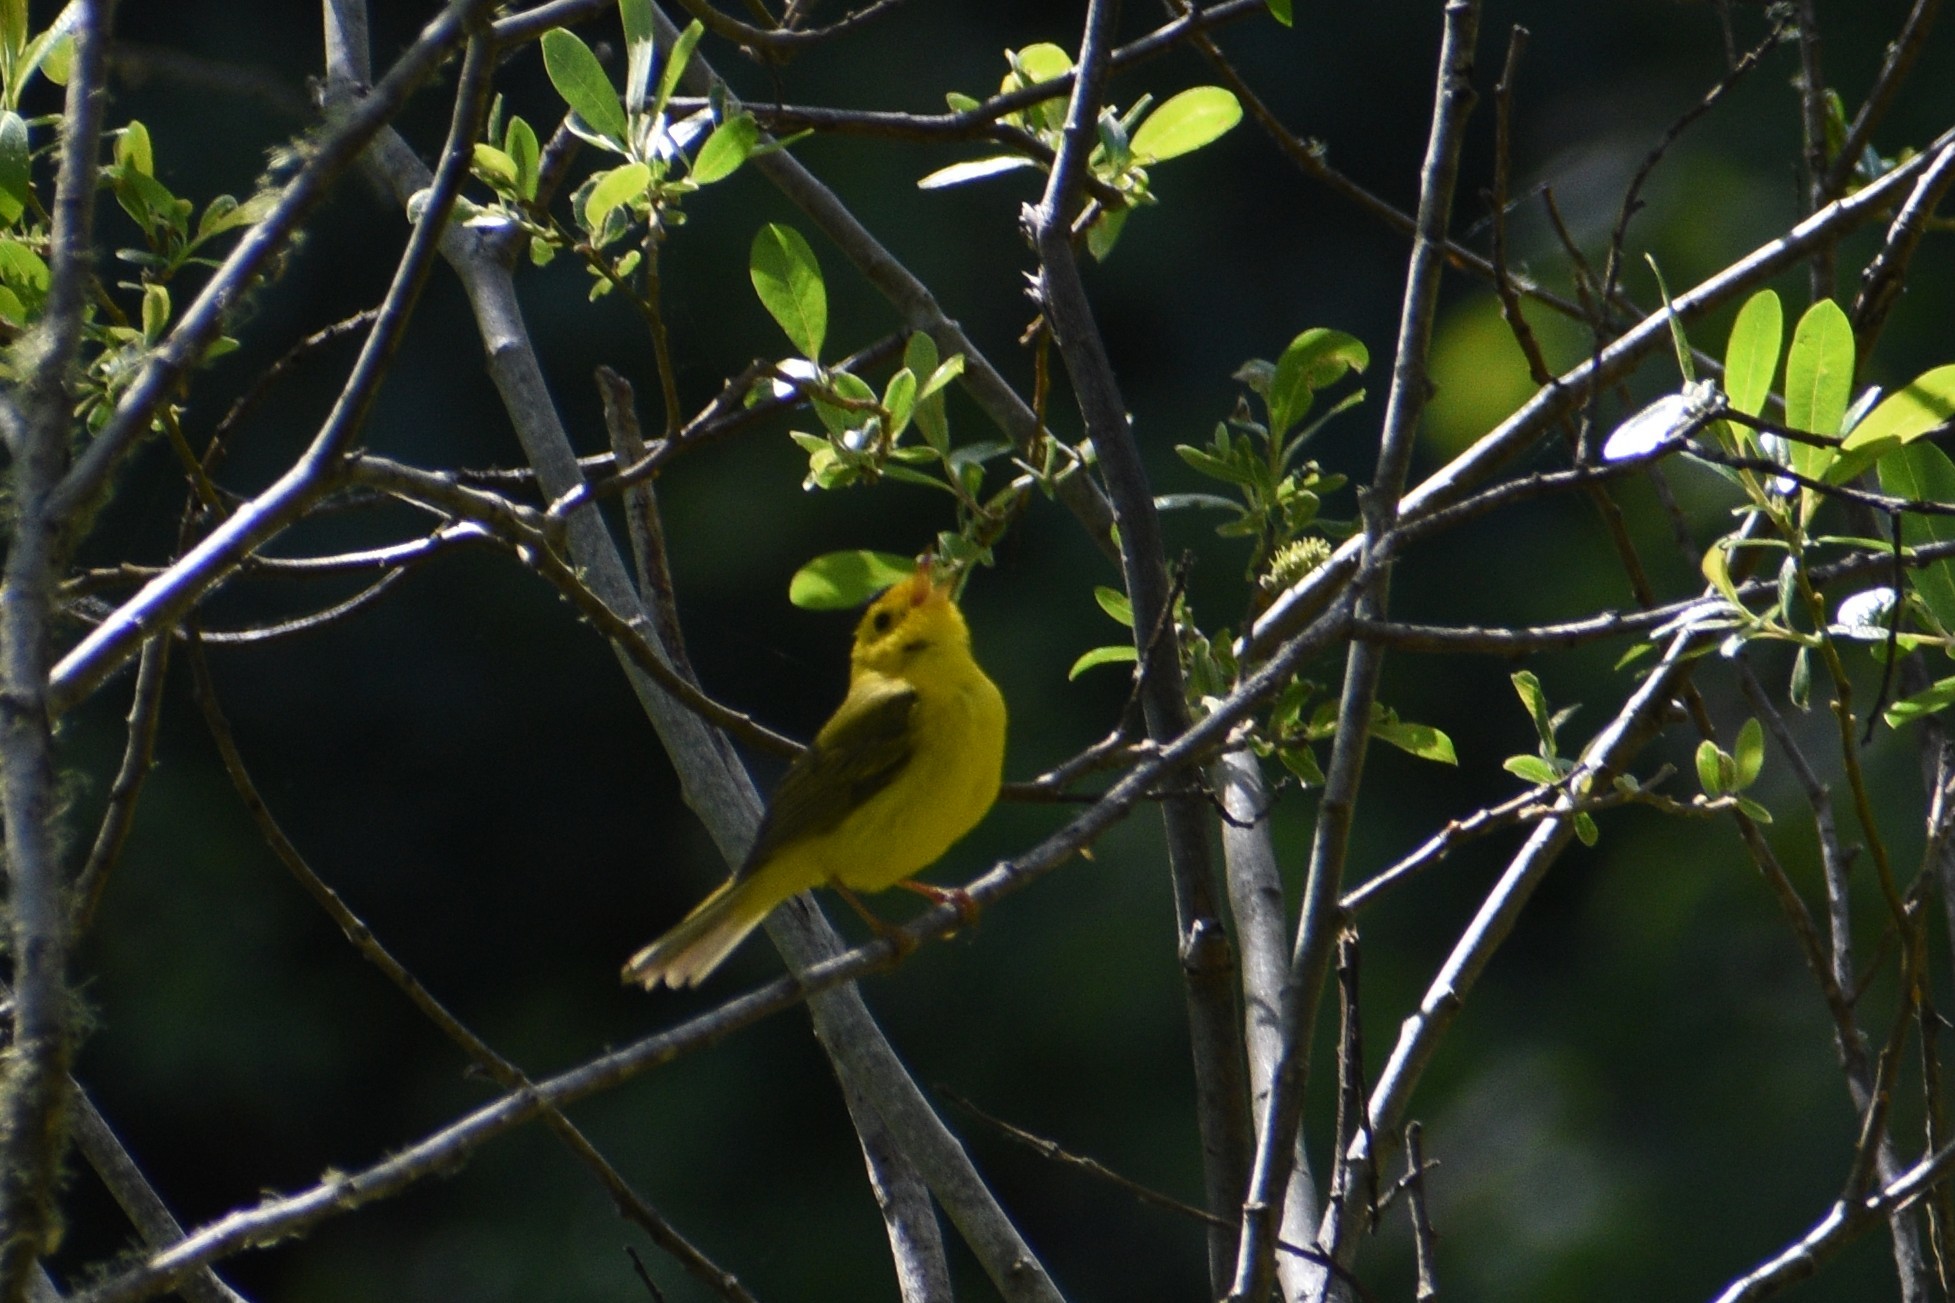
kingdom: Animalia
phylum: Chordata
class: Aves
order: Passeriformes
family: Parulidae
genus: Cardellina
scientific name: Cardellina pusilla
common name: Wilson's warbler
